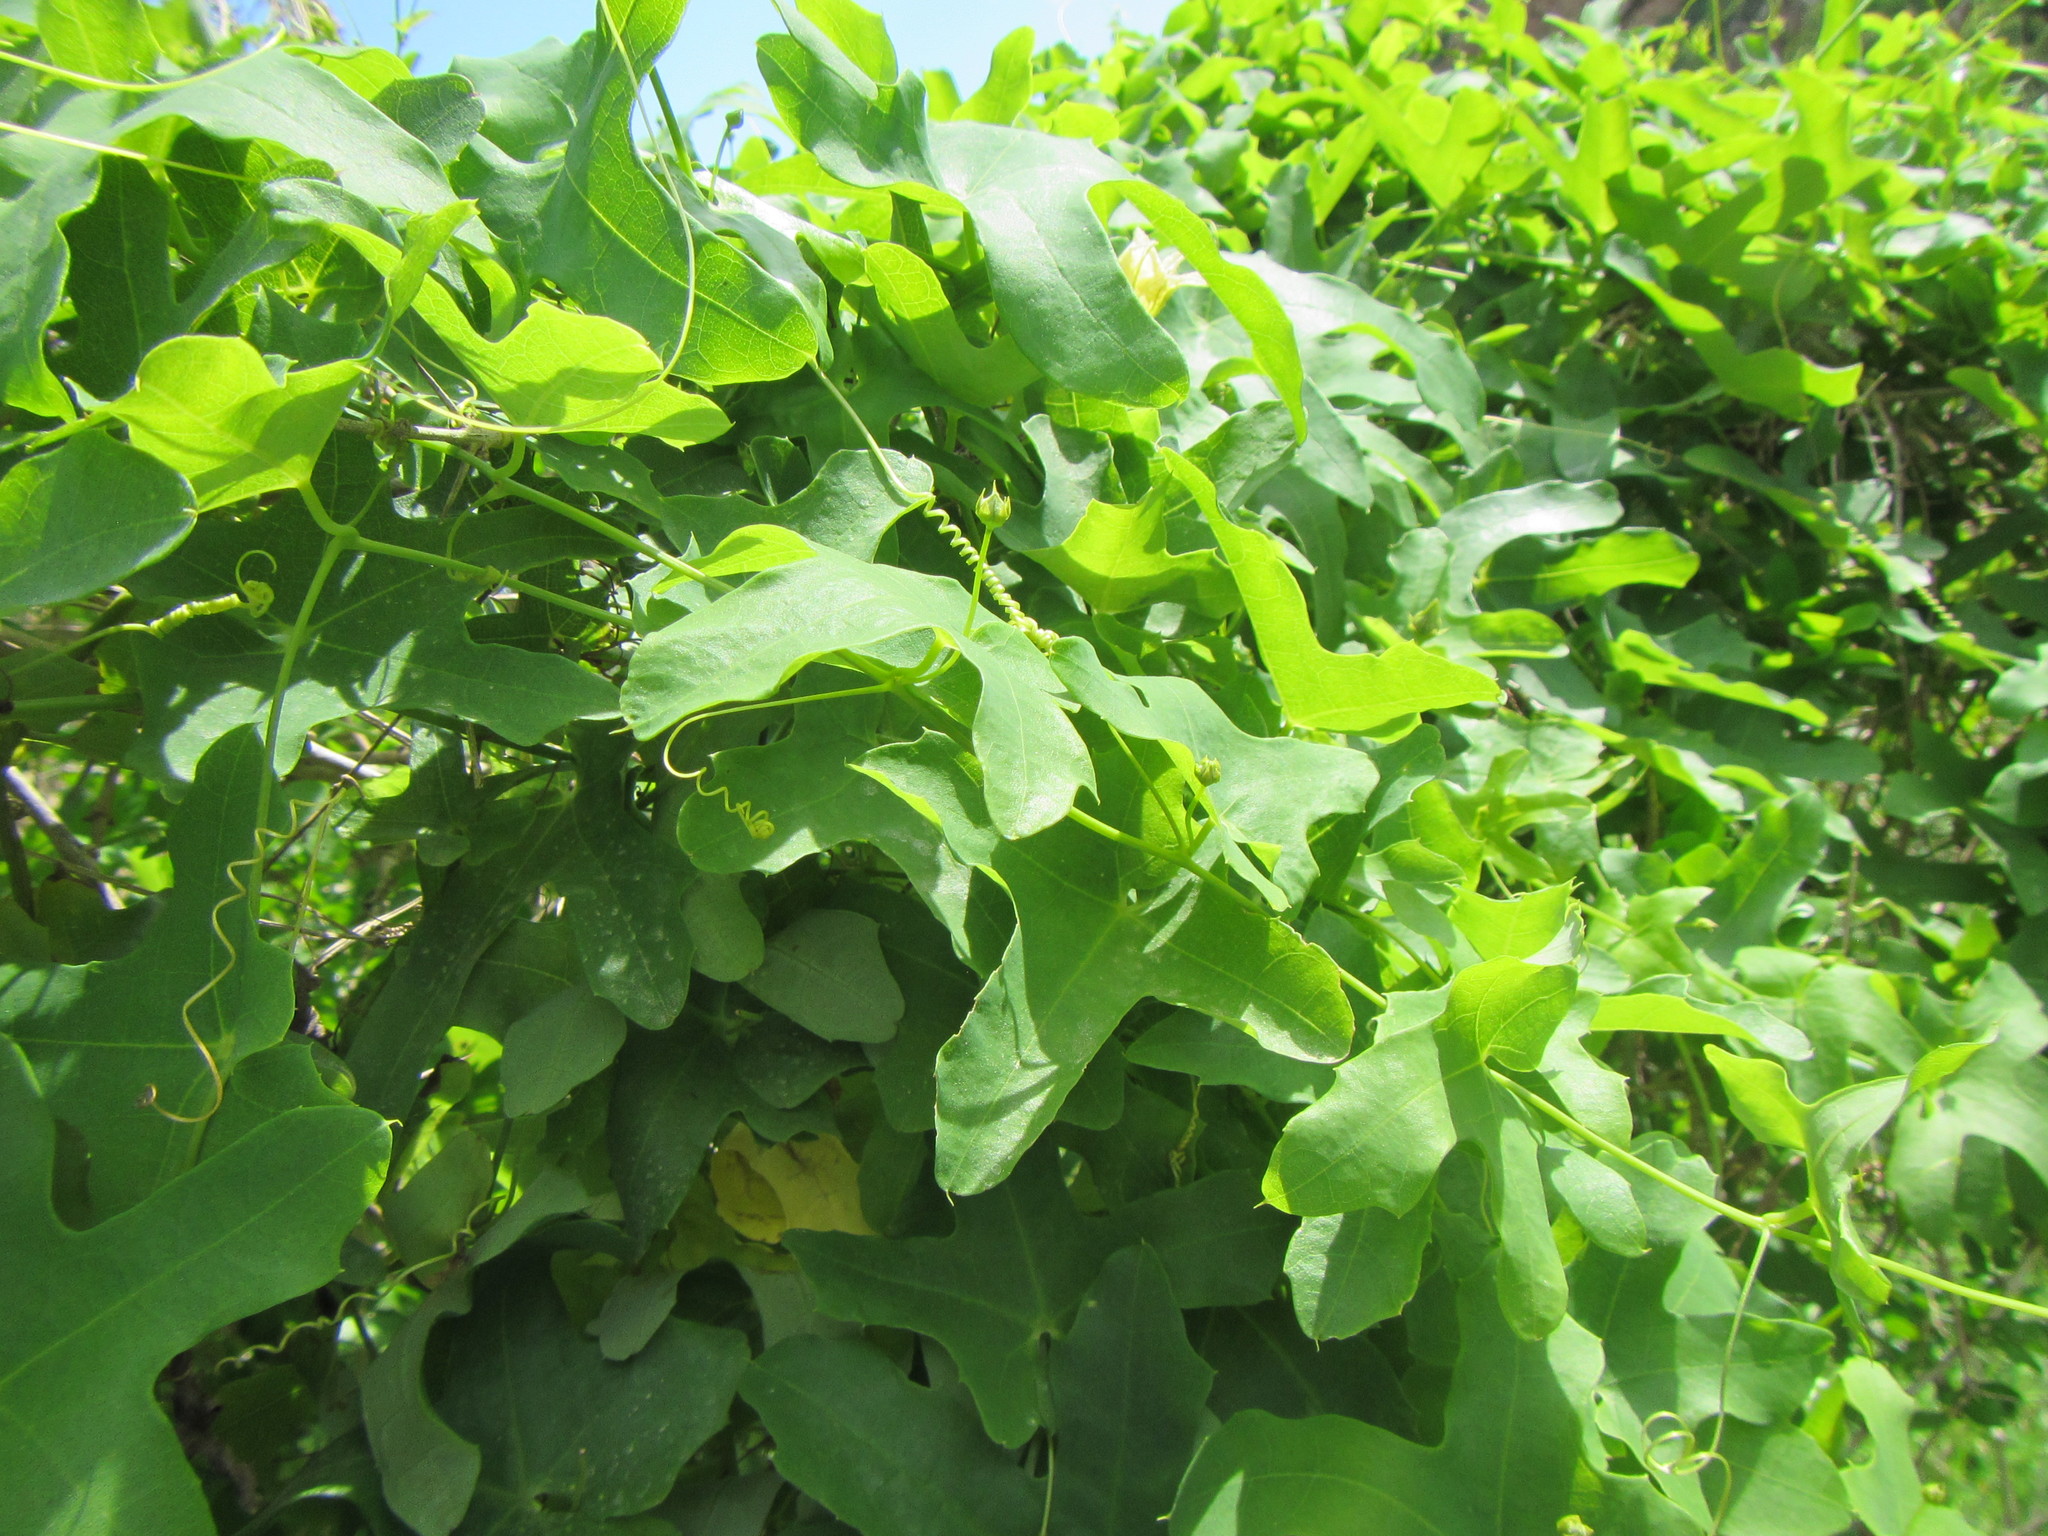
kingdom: Plantae
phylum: Tracheophyta
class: Magnoliopsida
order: Cucurbitales
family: Cucurbitaceae
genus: Coccinia
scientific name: Coccinia quinqueloba
